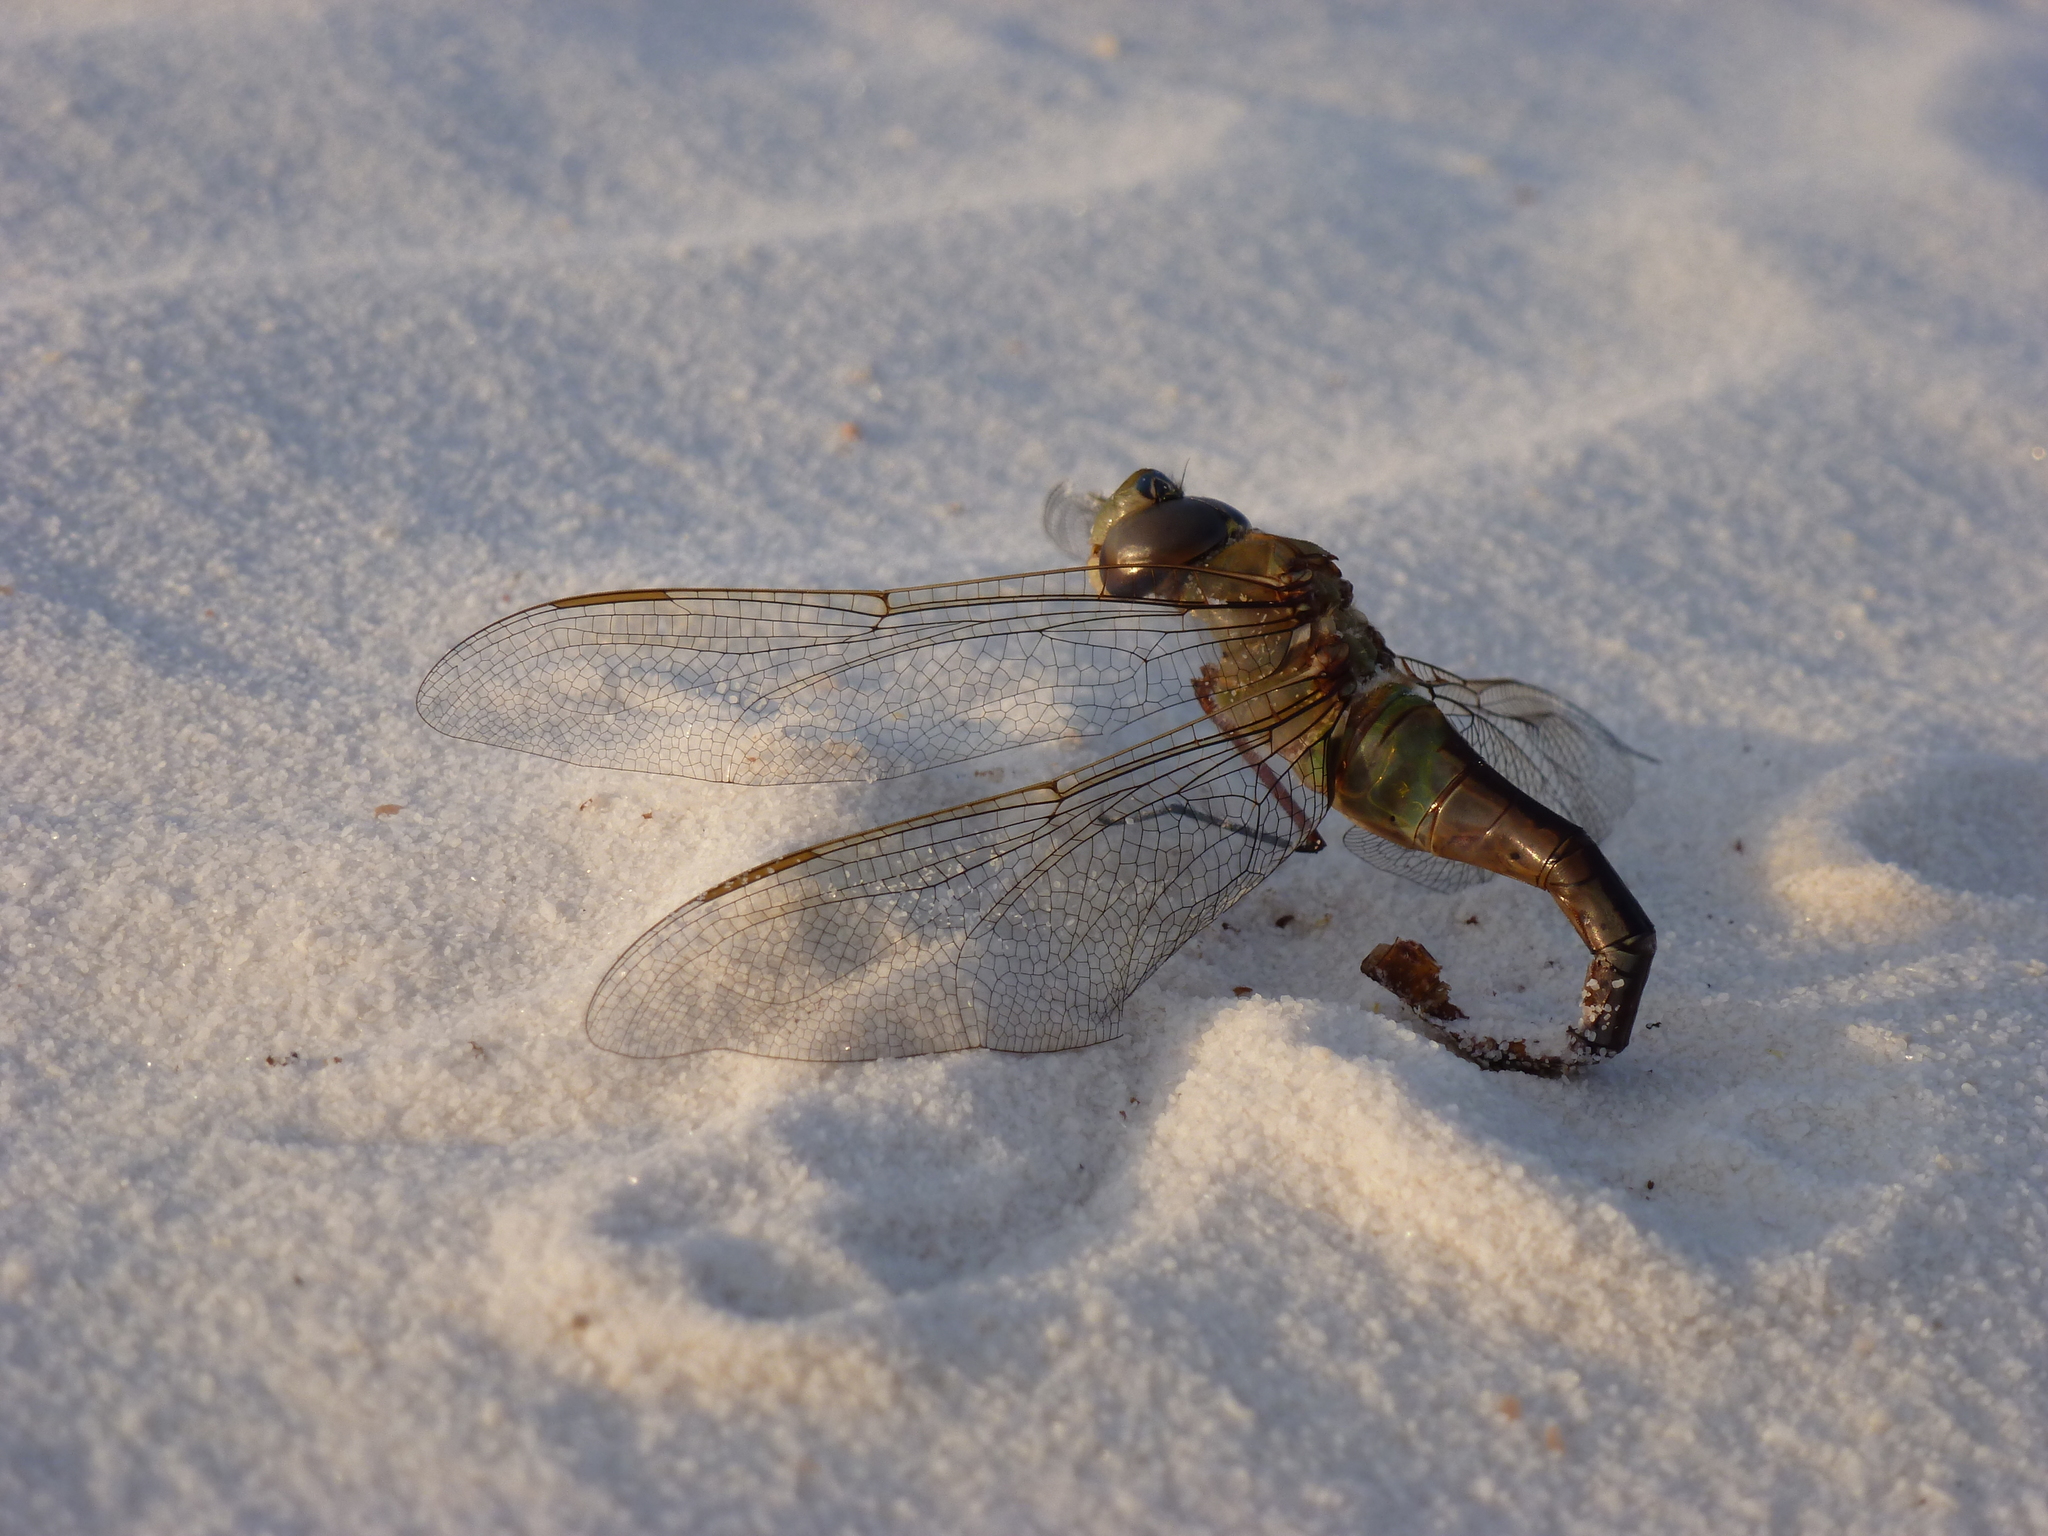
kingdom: Animalia
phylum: Arthropoda
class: Insecta
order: Odonata
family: Aeshnidae
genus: Anax
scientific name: Anax junius
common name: Common green darner
